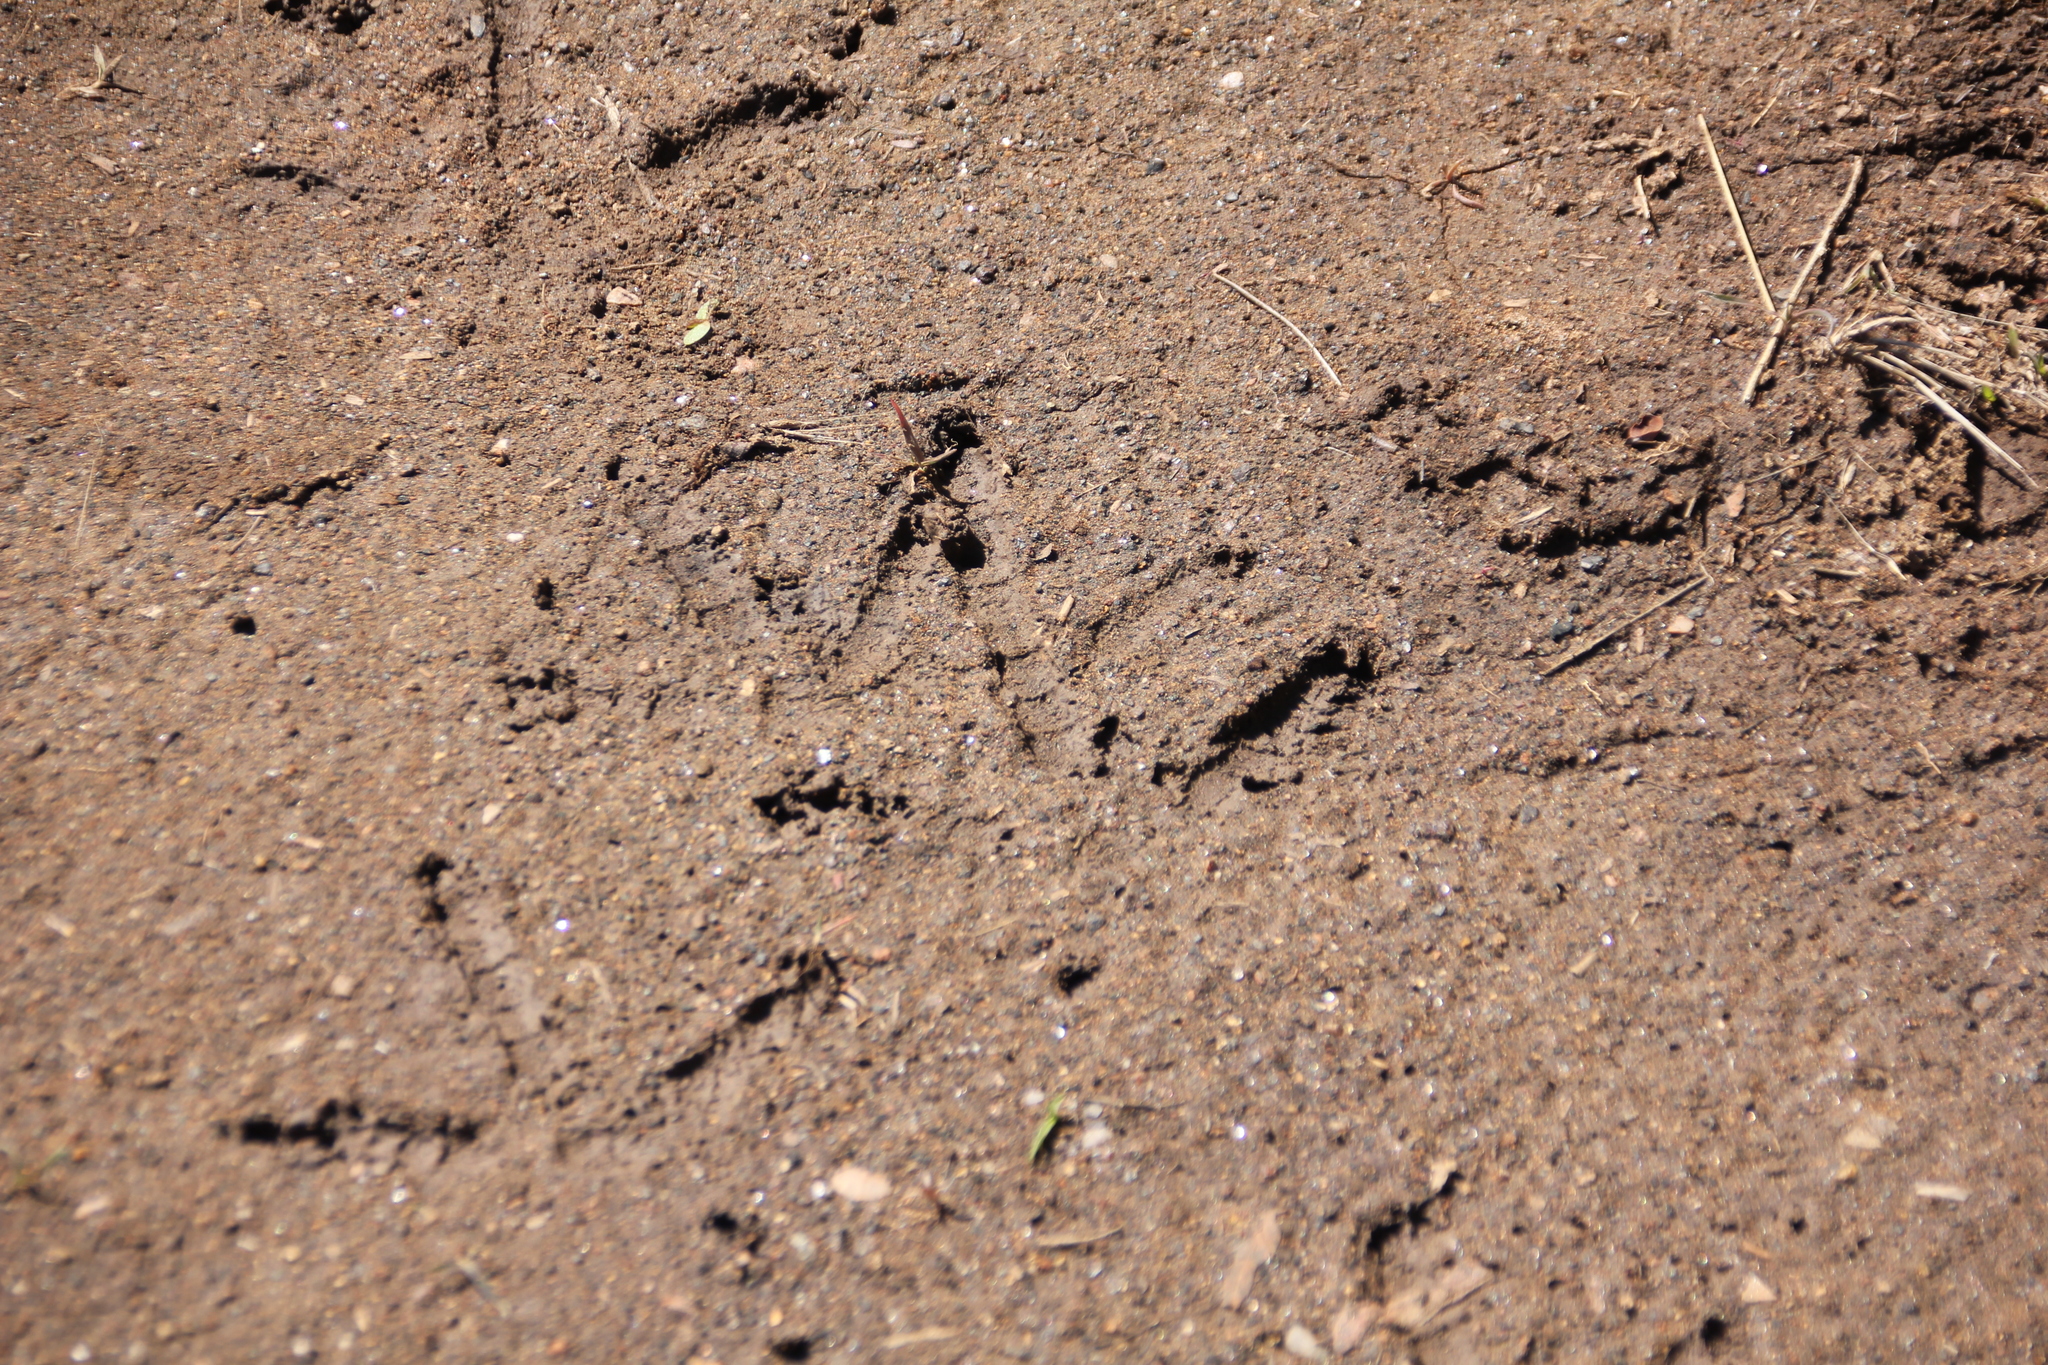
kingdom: Animalia
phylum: Chordata
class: Aves
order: Galliformes
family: Phasianidae
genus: Meleagris
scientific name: Meleagris gallopavo
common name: Wild turkey
